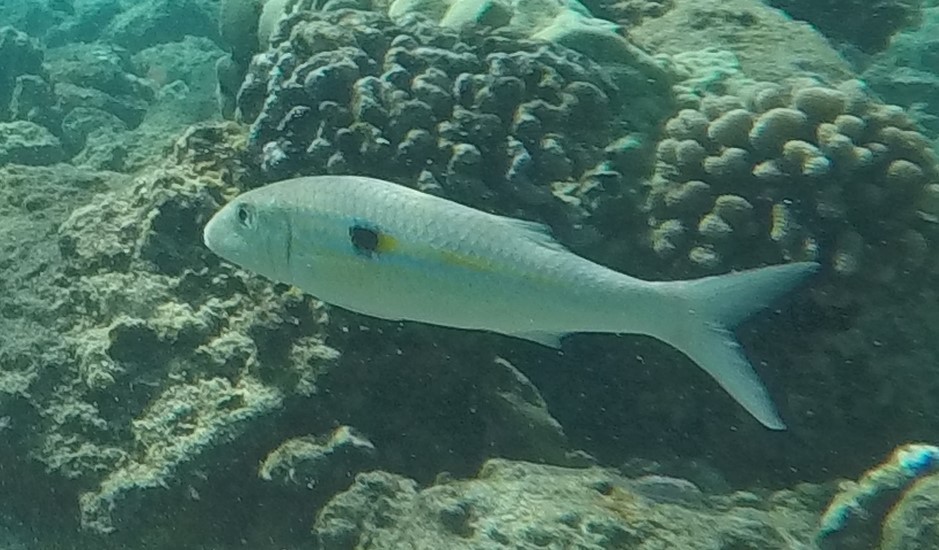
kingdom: Animalia
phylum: Chordata
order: Perciformes
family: Mullidae
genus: Mulloidichthys
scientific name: Mulloidichthys flavolineatus
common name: Yellowstripe goatfish
